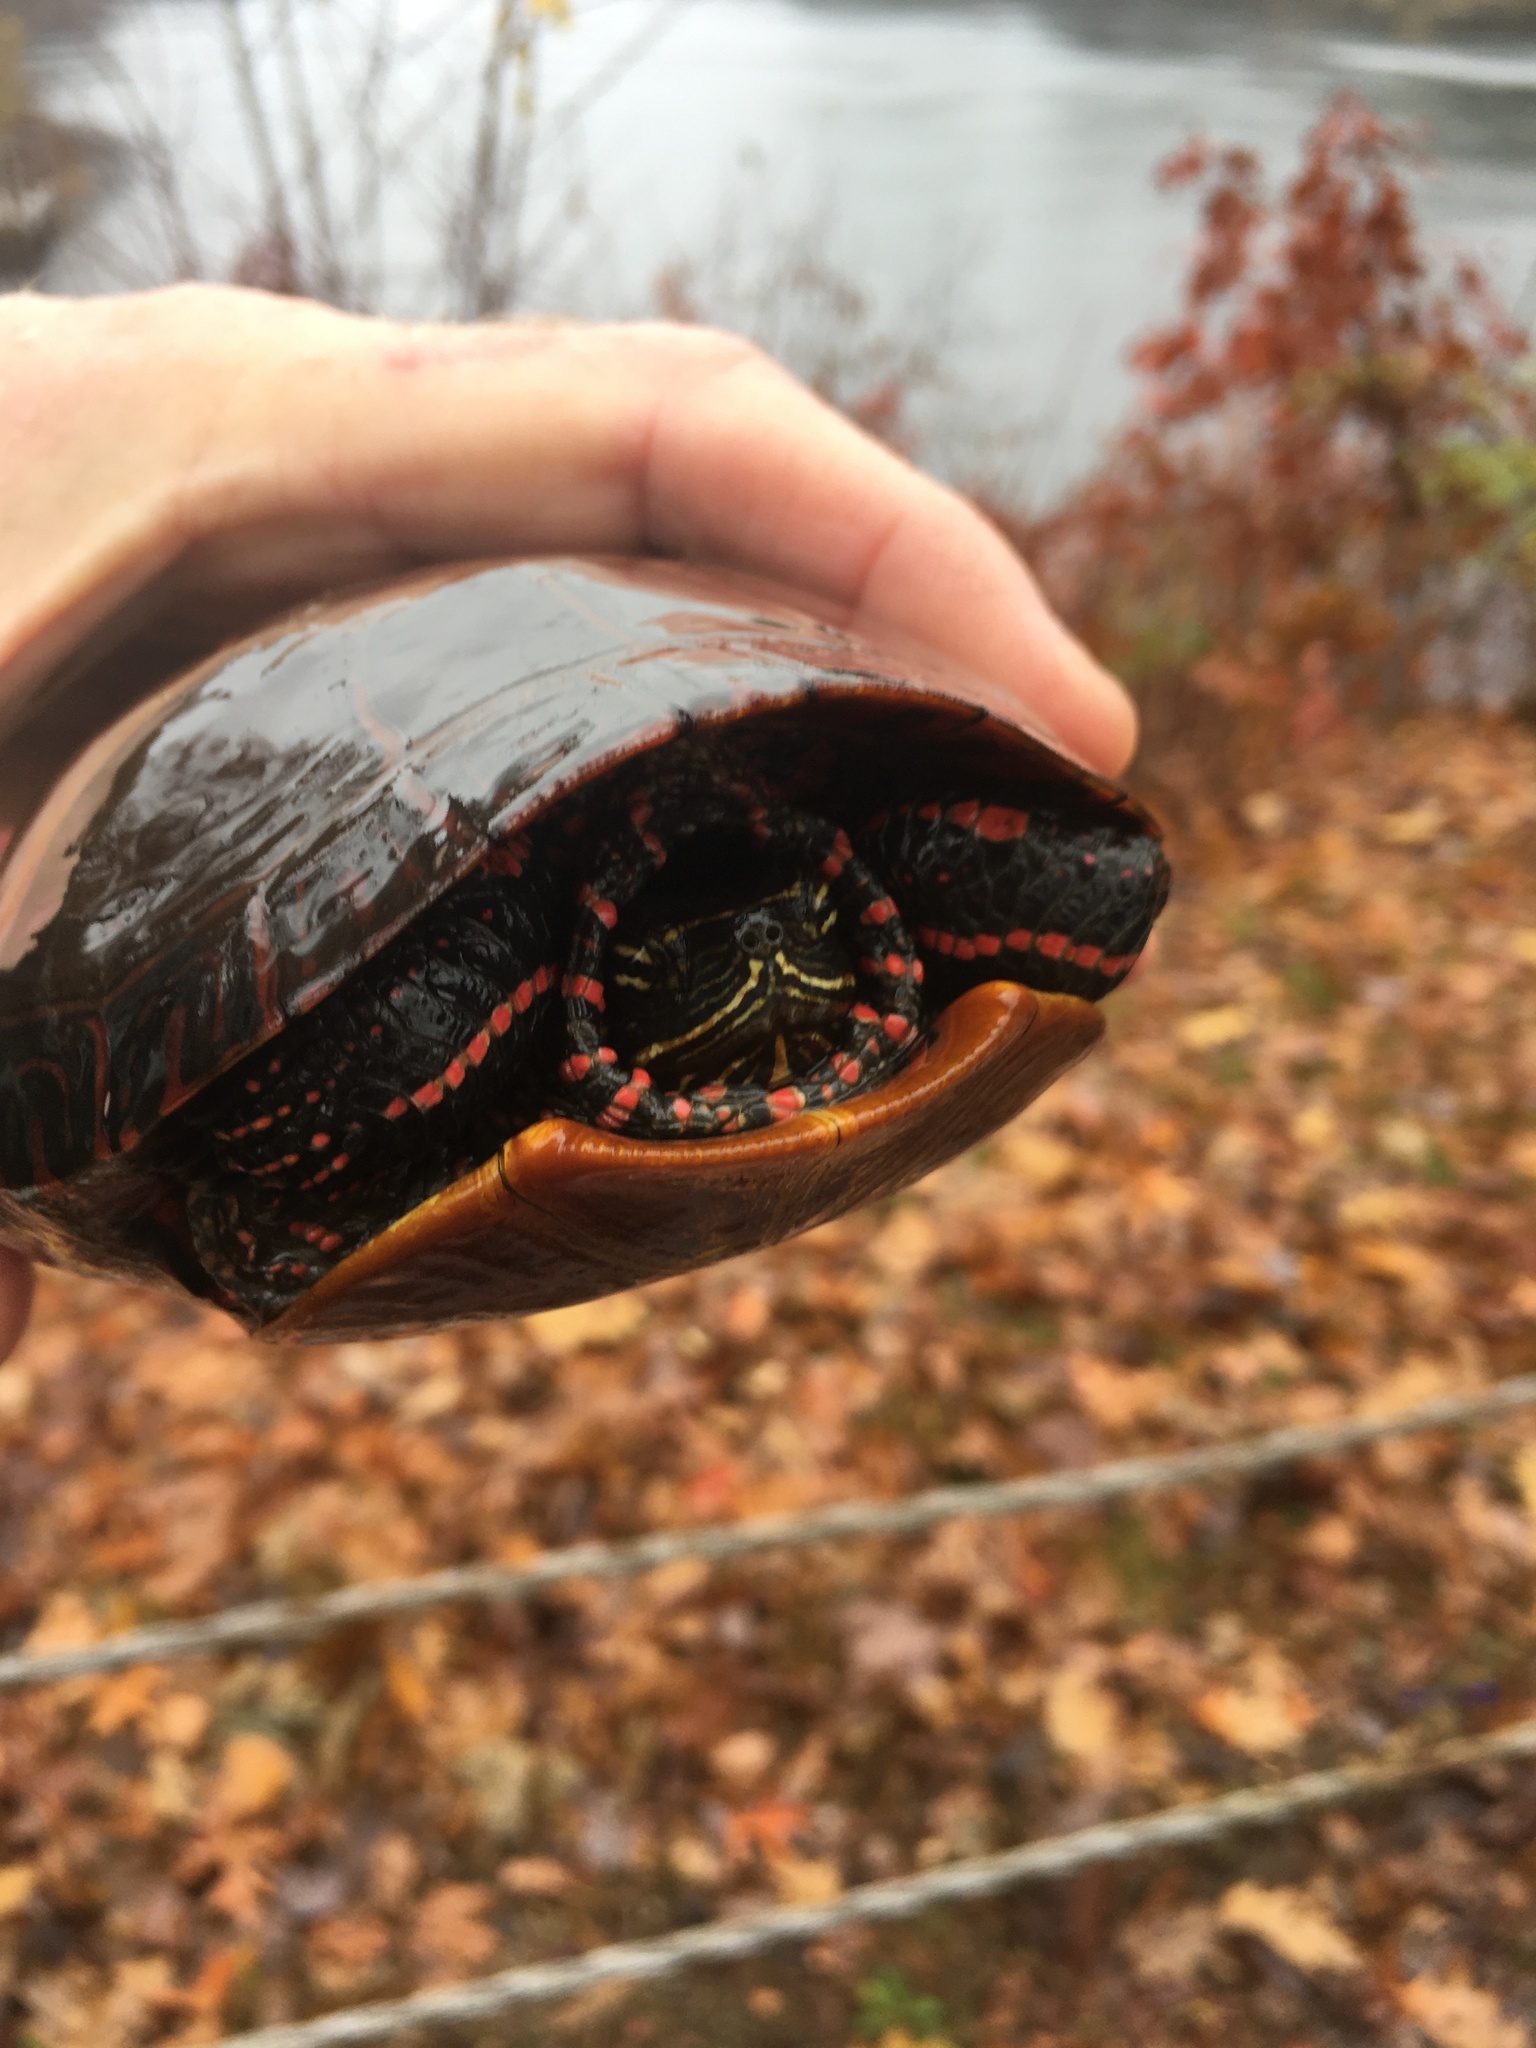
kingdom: Animalia
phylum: Chordata
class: Testudines
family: Emydidae
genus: Chrysemys
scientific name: Chrysemys picta
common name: Painted turtle
